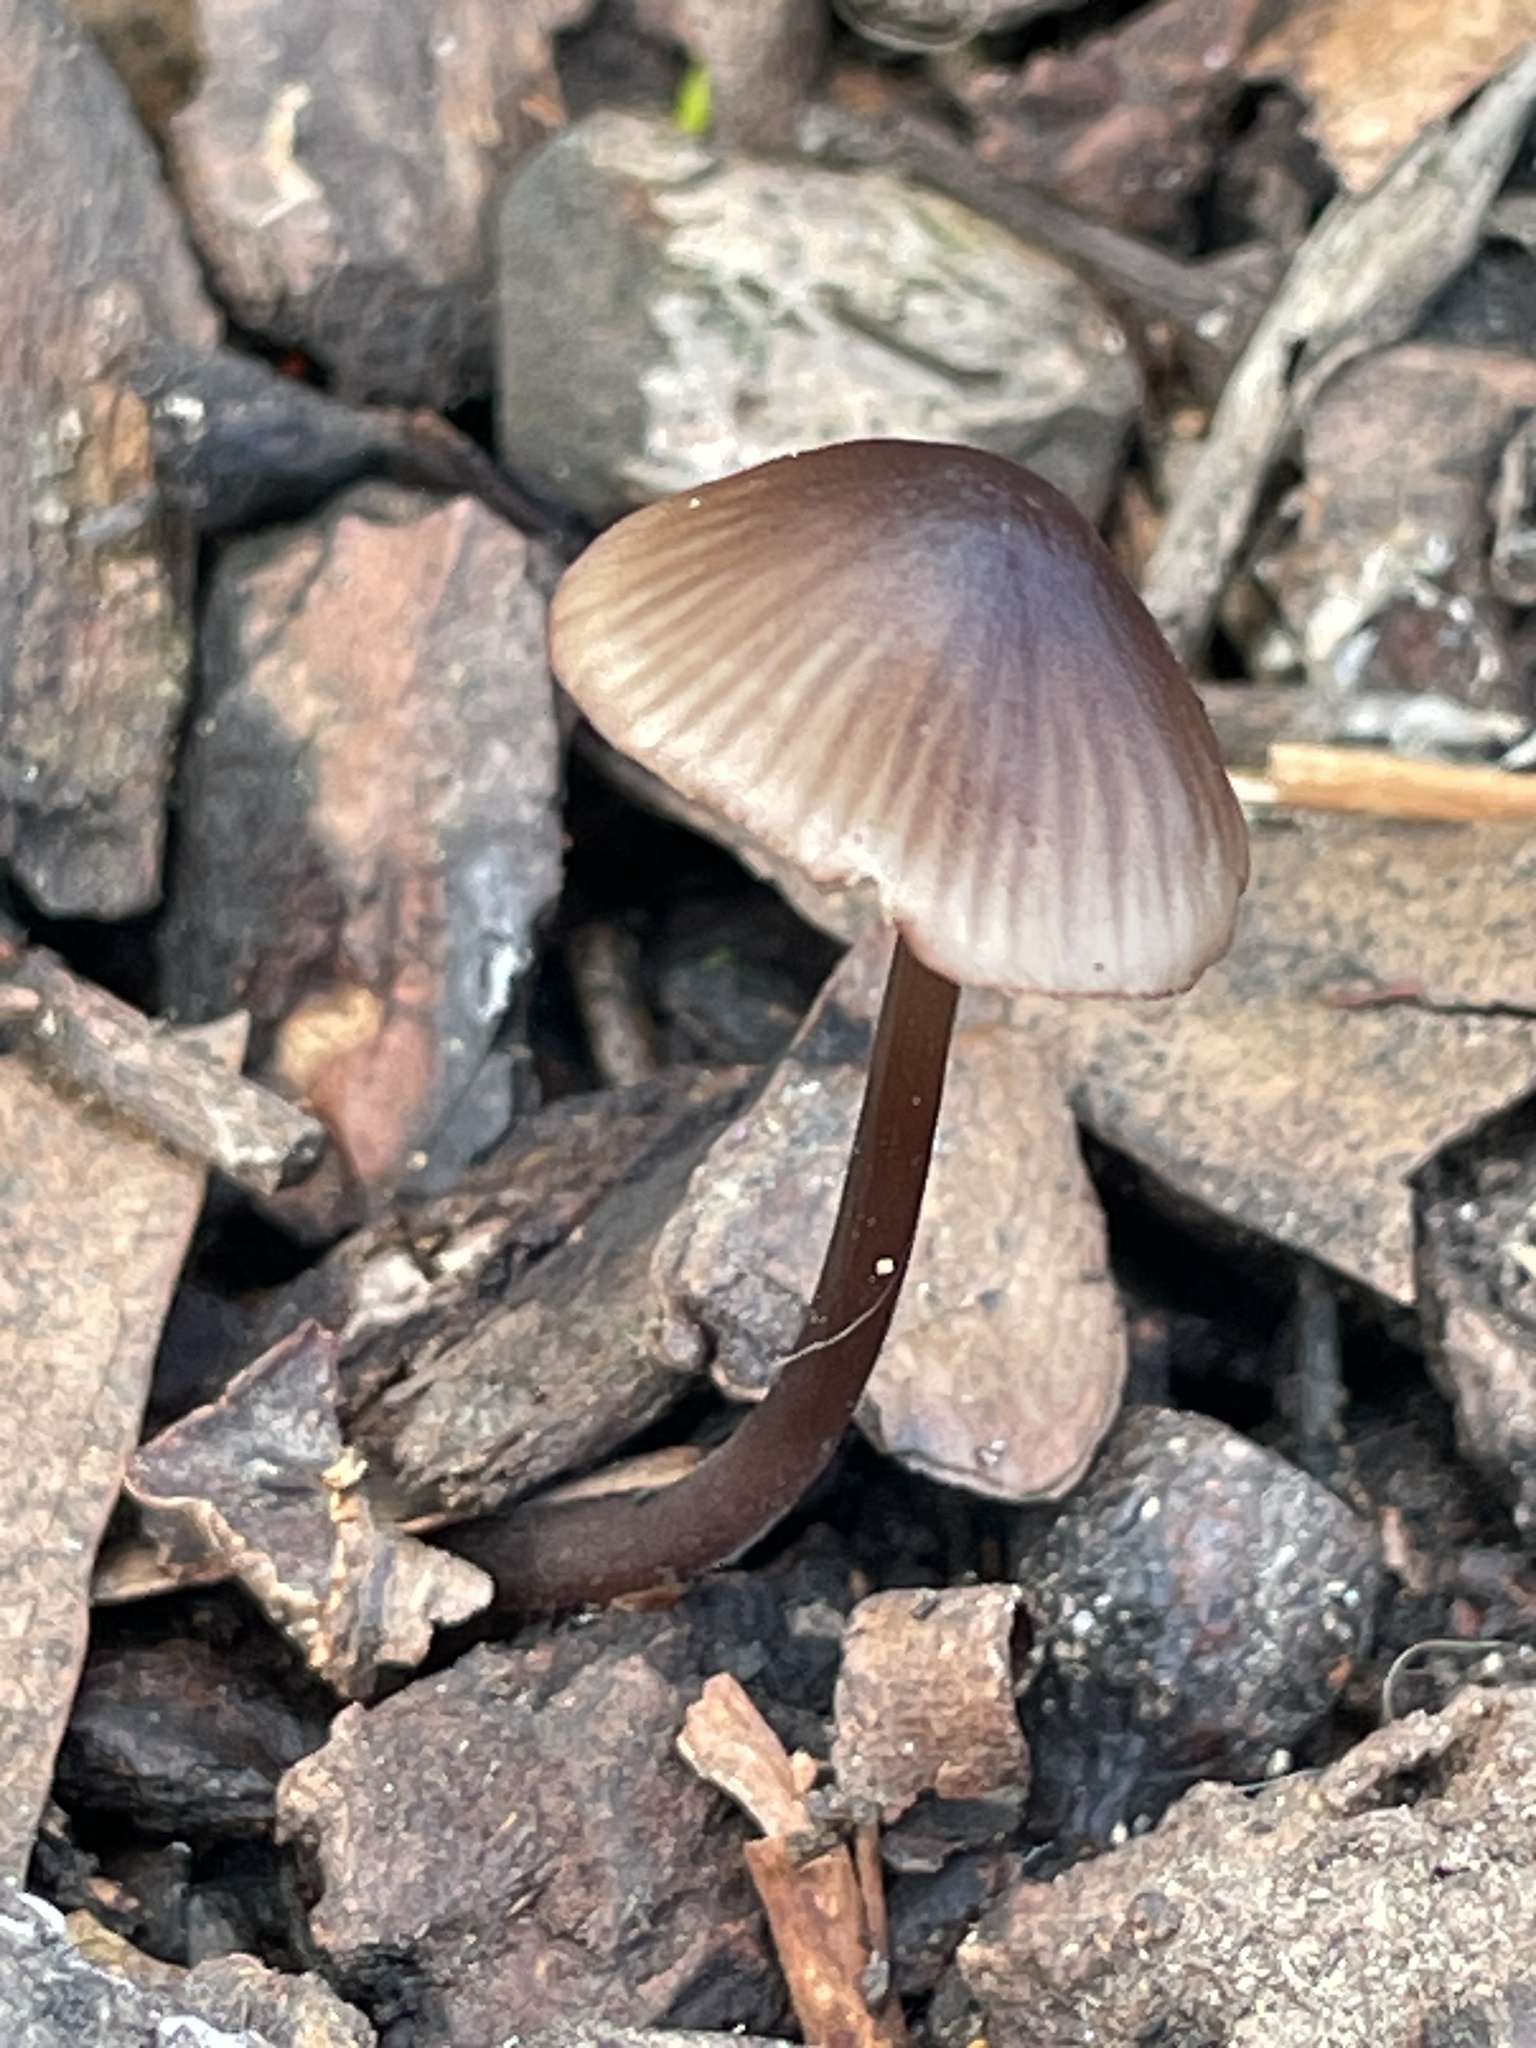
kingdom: Fungi
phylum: Basidiomycota
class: Agaricomycetes
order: Agaricales
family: Mycenaceae
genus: Mycena
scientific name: Mycena purpureofusca
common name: Purple edge bonnet
